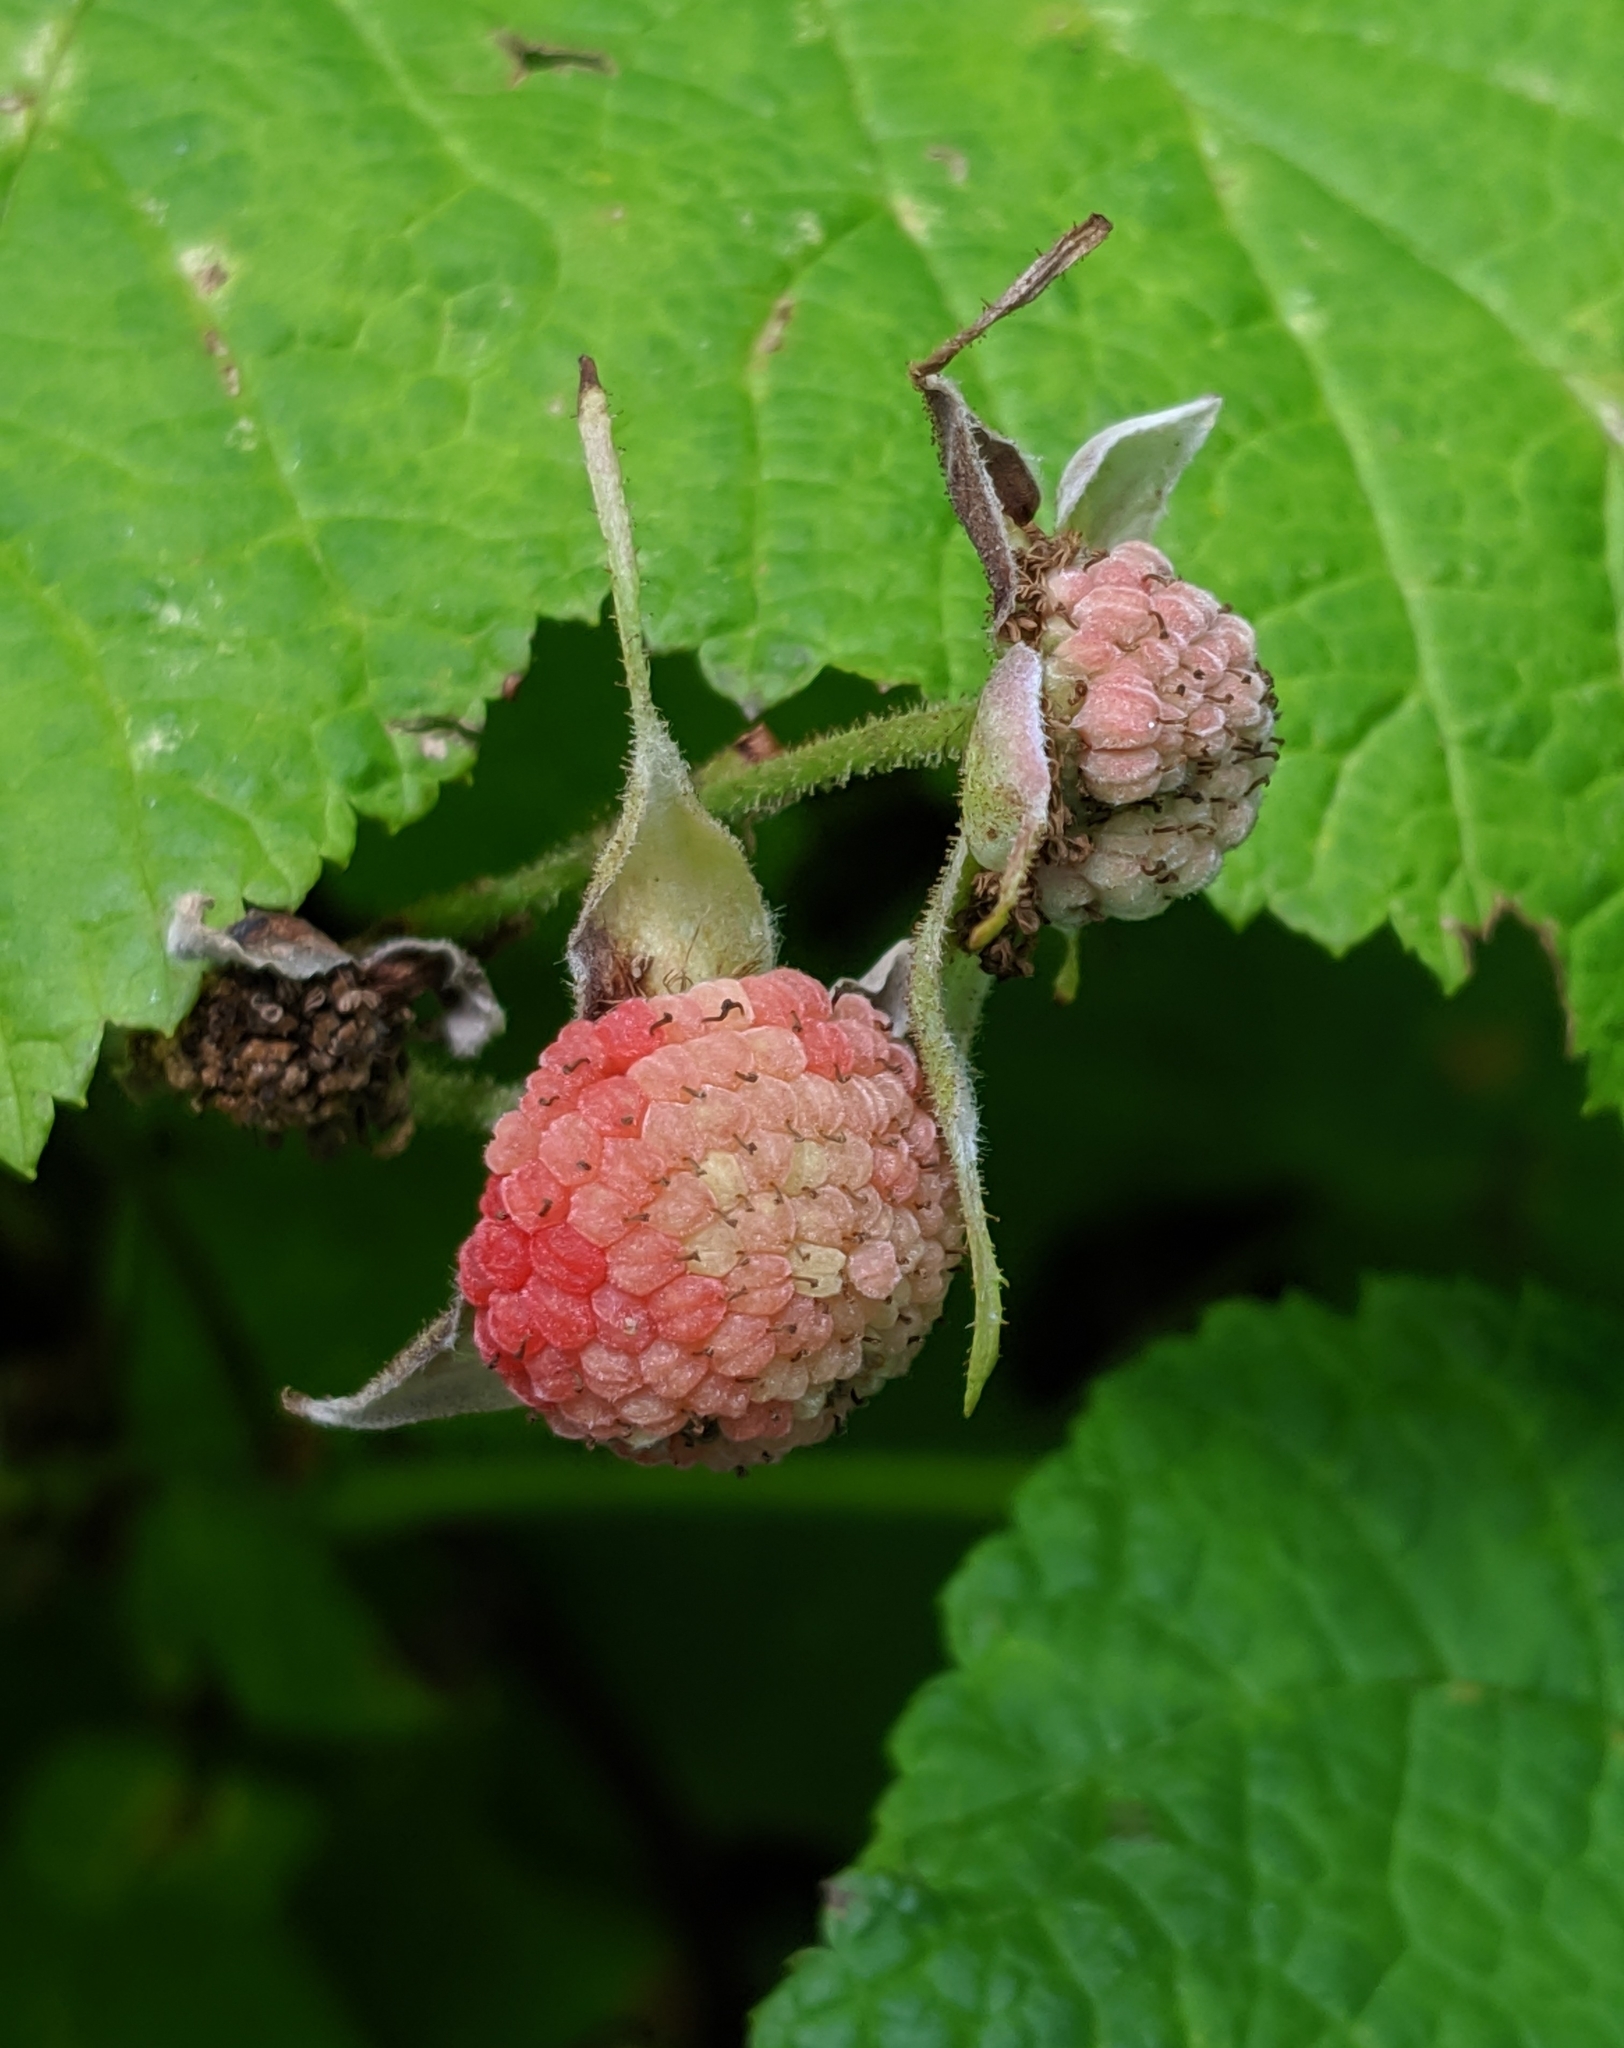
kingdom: Plantae
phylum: Tracheophyta
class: Magnoliopsida
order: Rosales
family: Rosaceae
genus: Rubus
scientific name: Rubus parviflorus
